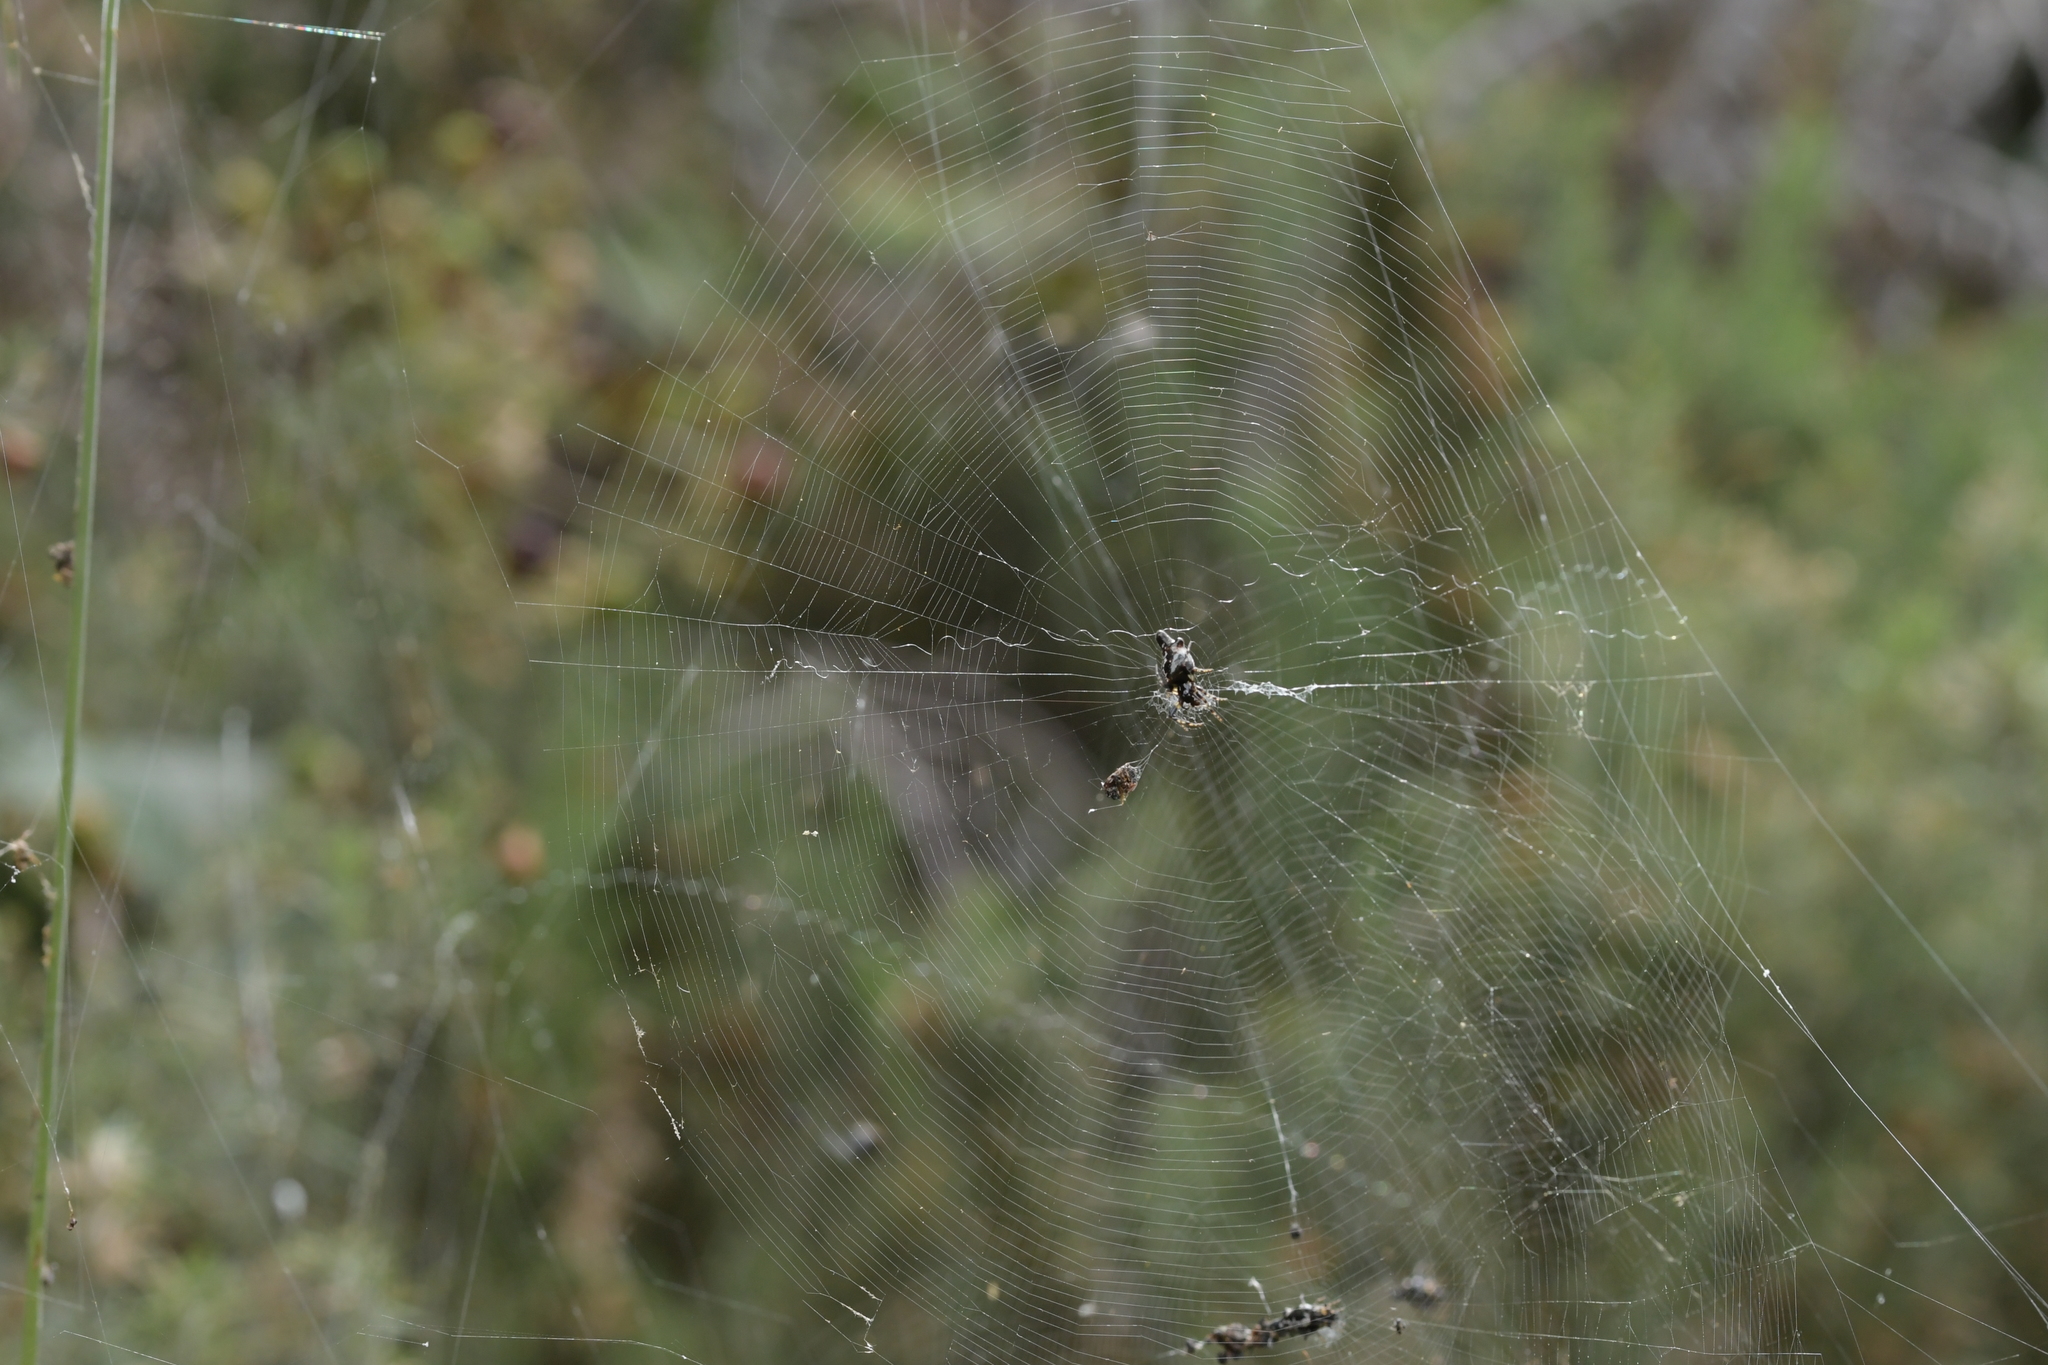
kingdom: Animalia
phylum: Arthropoda
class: Arachnida
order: Araneae
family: Araneidae
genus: Cyclosa
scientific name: Cyclosa trilobata
